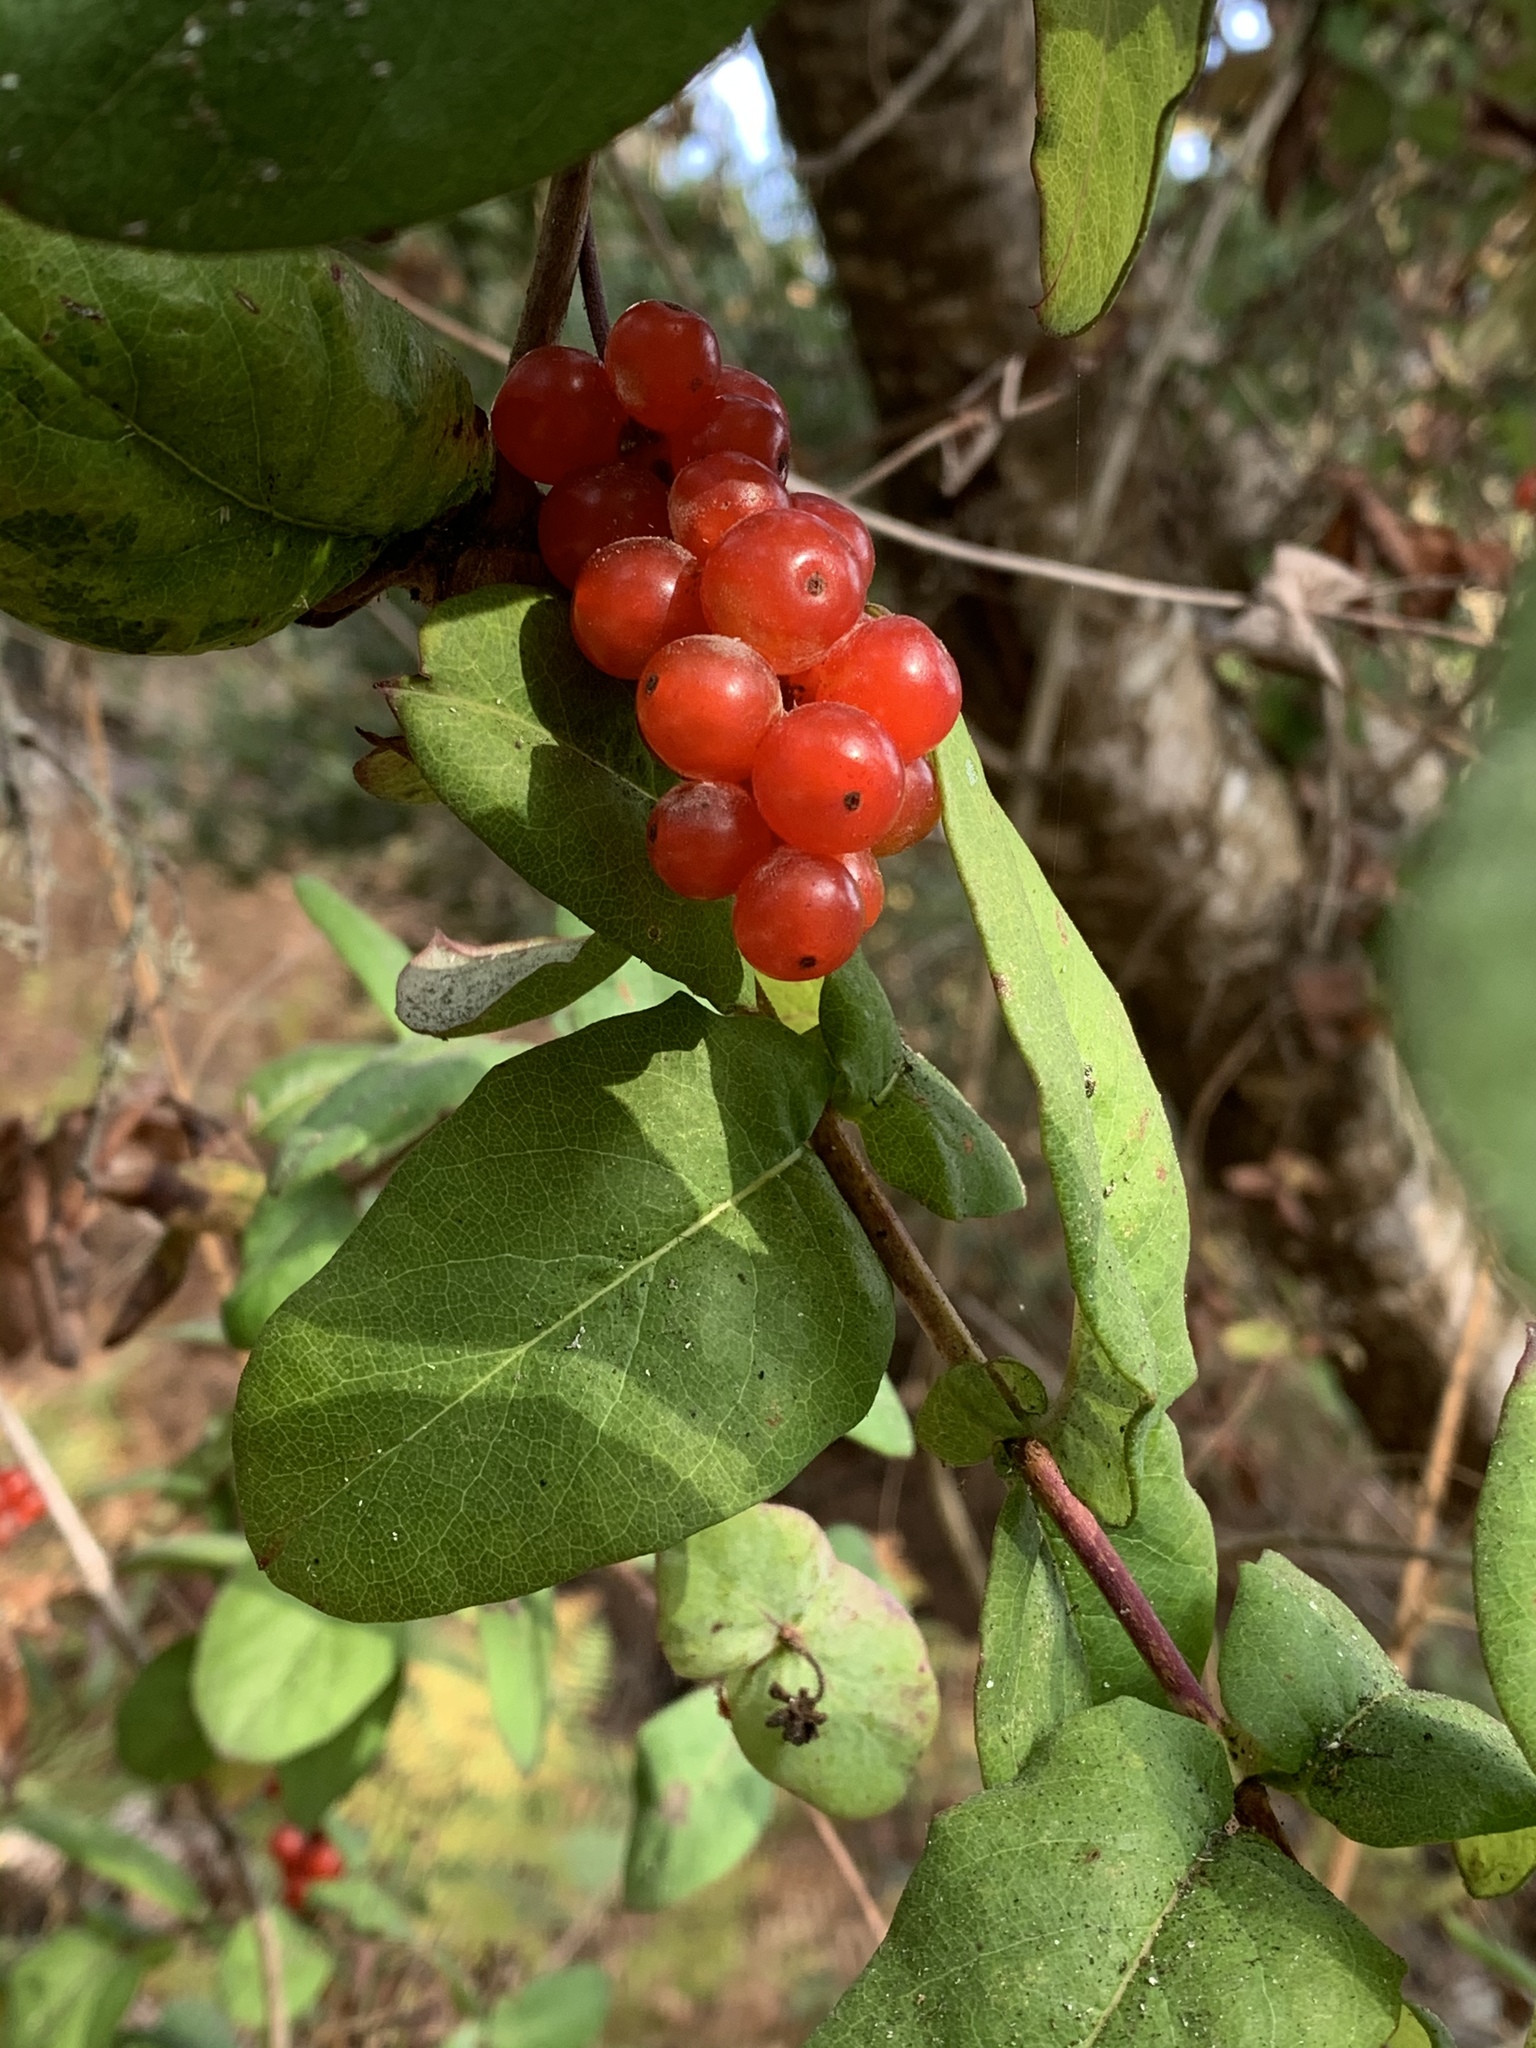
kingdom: Plantae
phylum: Tracheophyta
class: Magnoliopsida
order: Dipsacales
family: Caprifoliaceae
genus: Lonicera
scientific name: Lonicera hispidula
